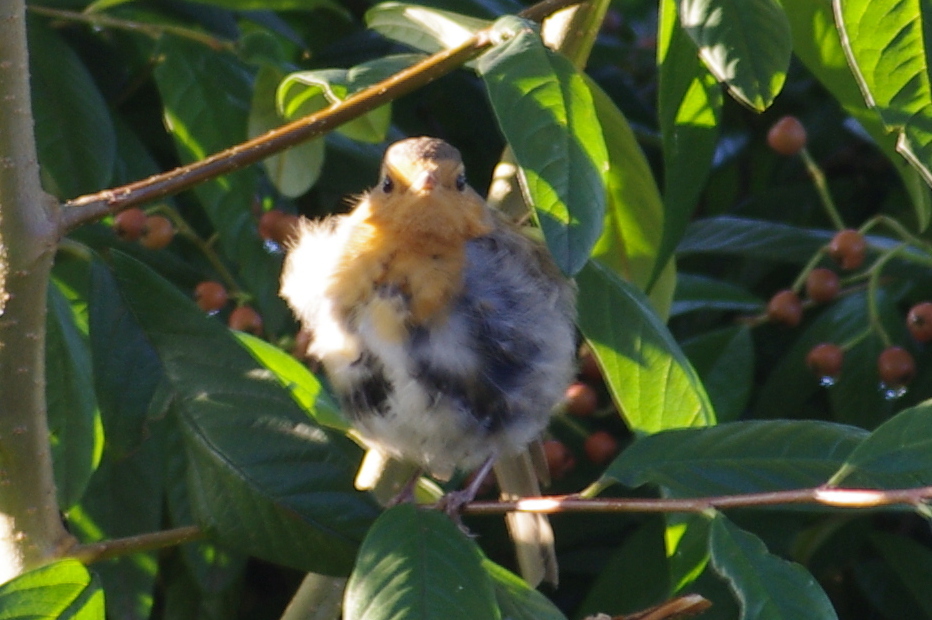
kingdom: Animalia
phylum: Chordata
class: Aves
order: Passeriformes
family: Muscicapidae
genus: Erithacus
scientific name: Erithacus rubecula
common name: European robin
